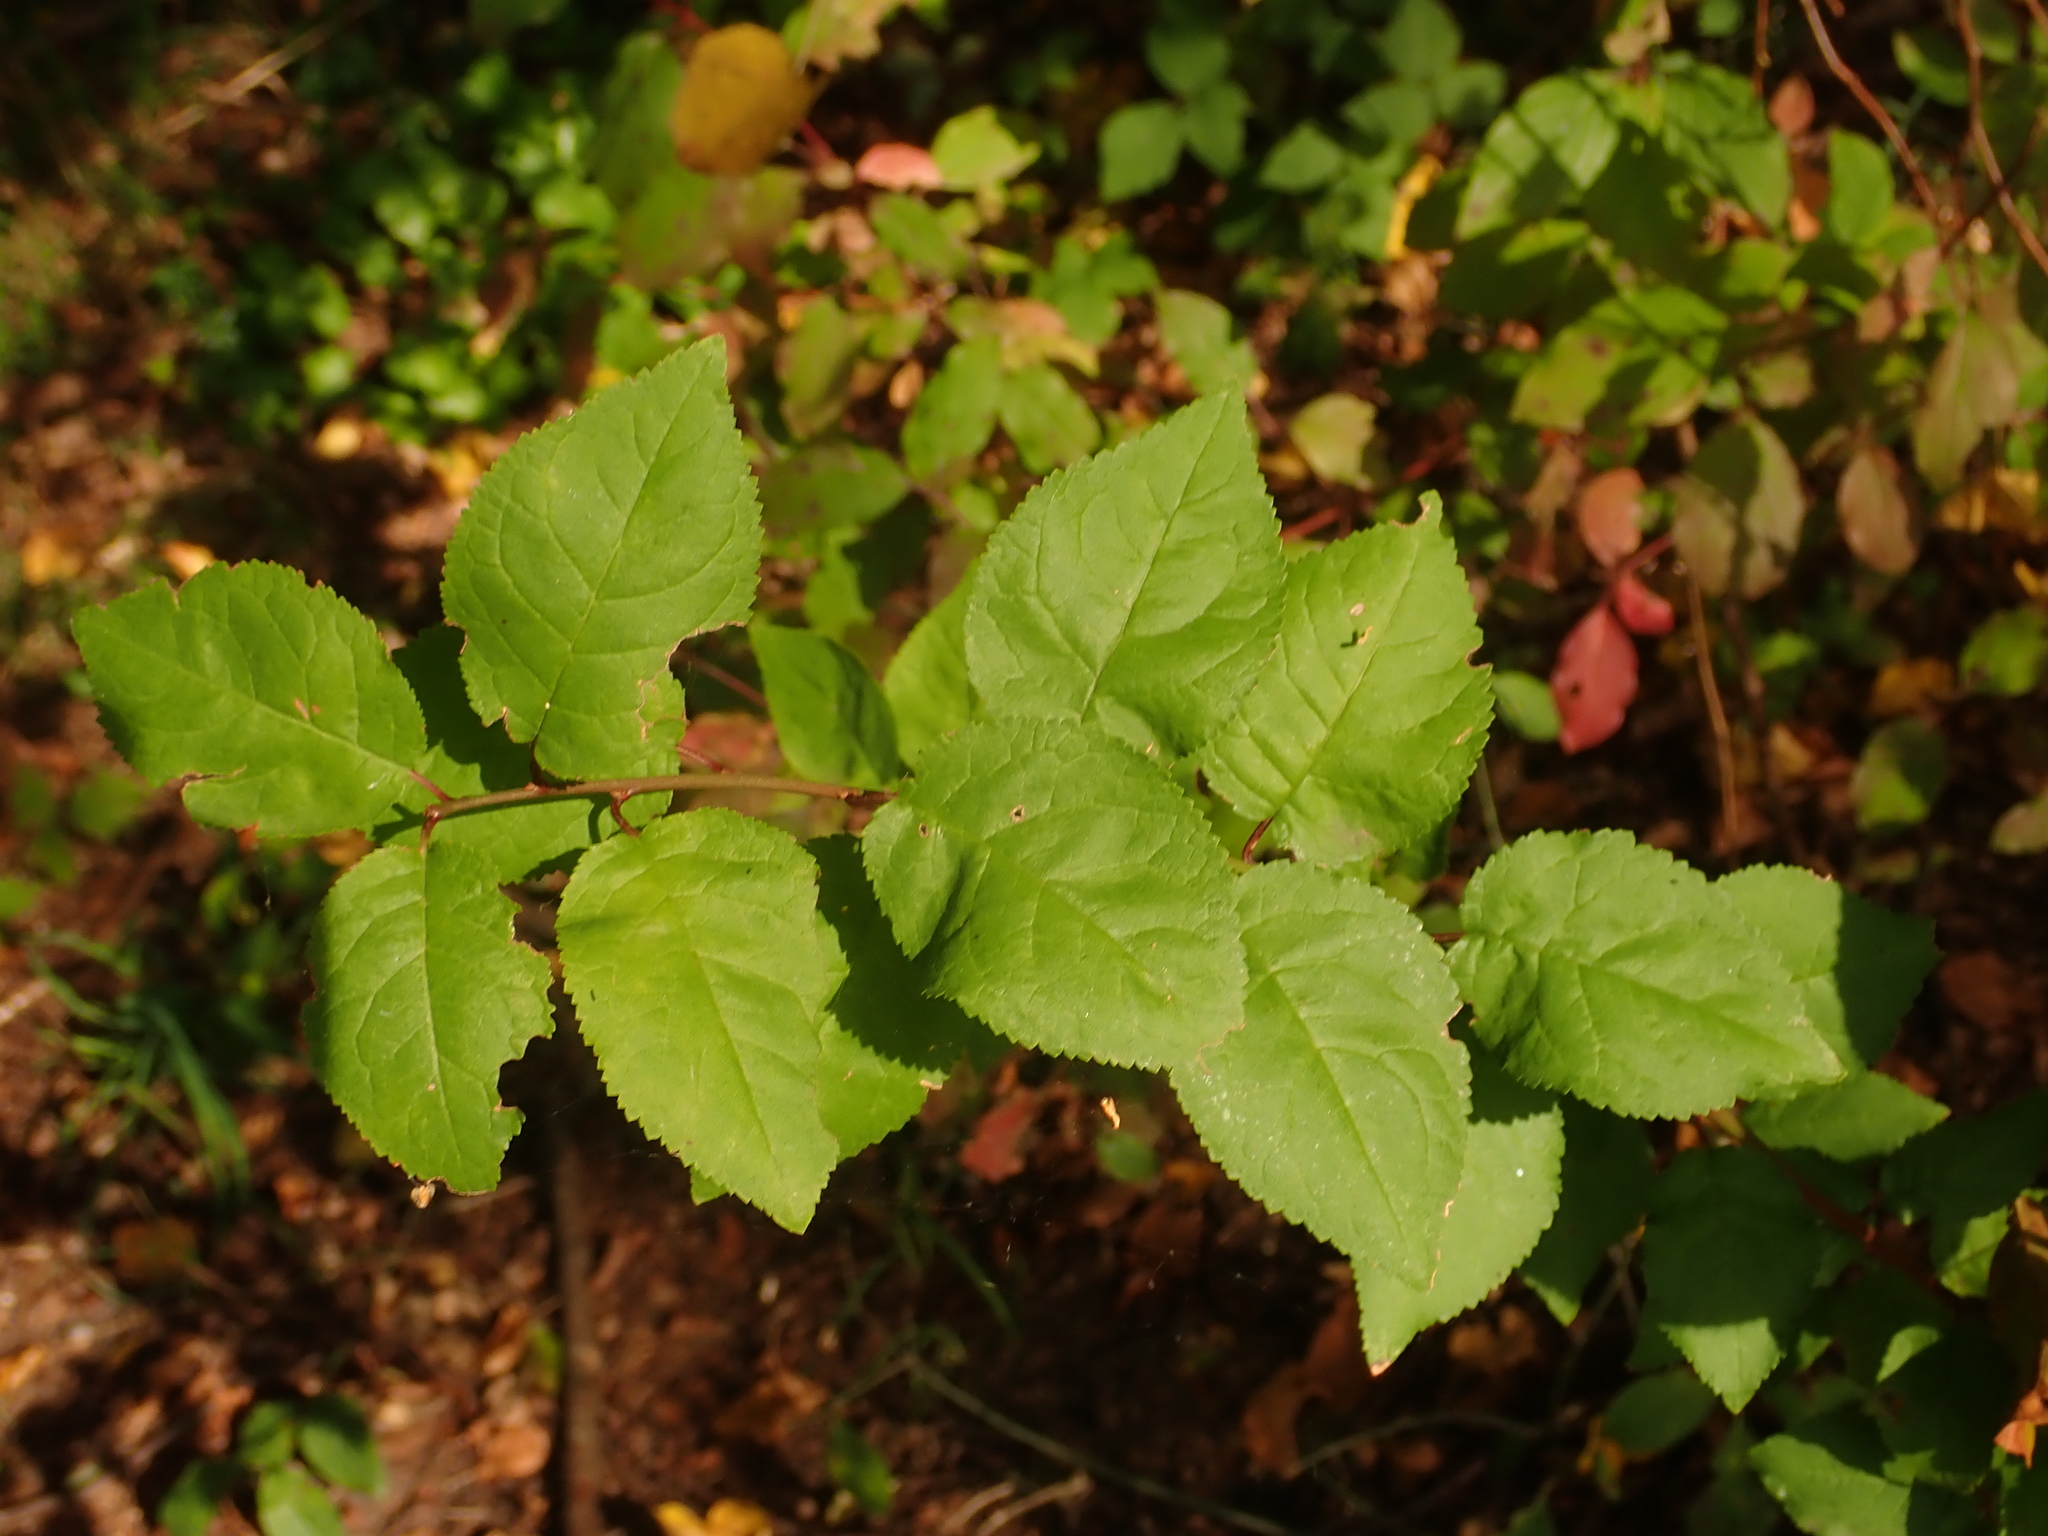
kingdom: Plantae
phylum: Tracheophyta
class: Magnoliopsida
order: Rosales
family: Rosaceae
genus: Prunus
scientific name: Prunus cerasifera
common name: Cherry plum
